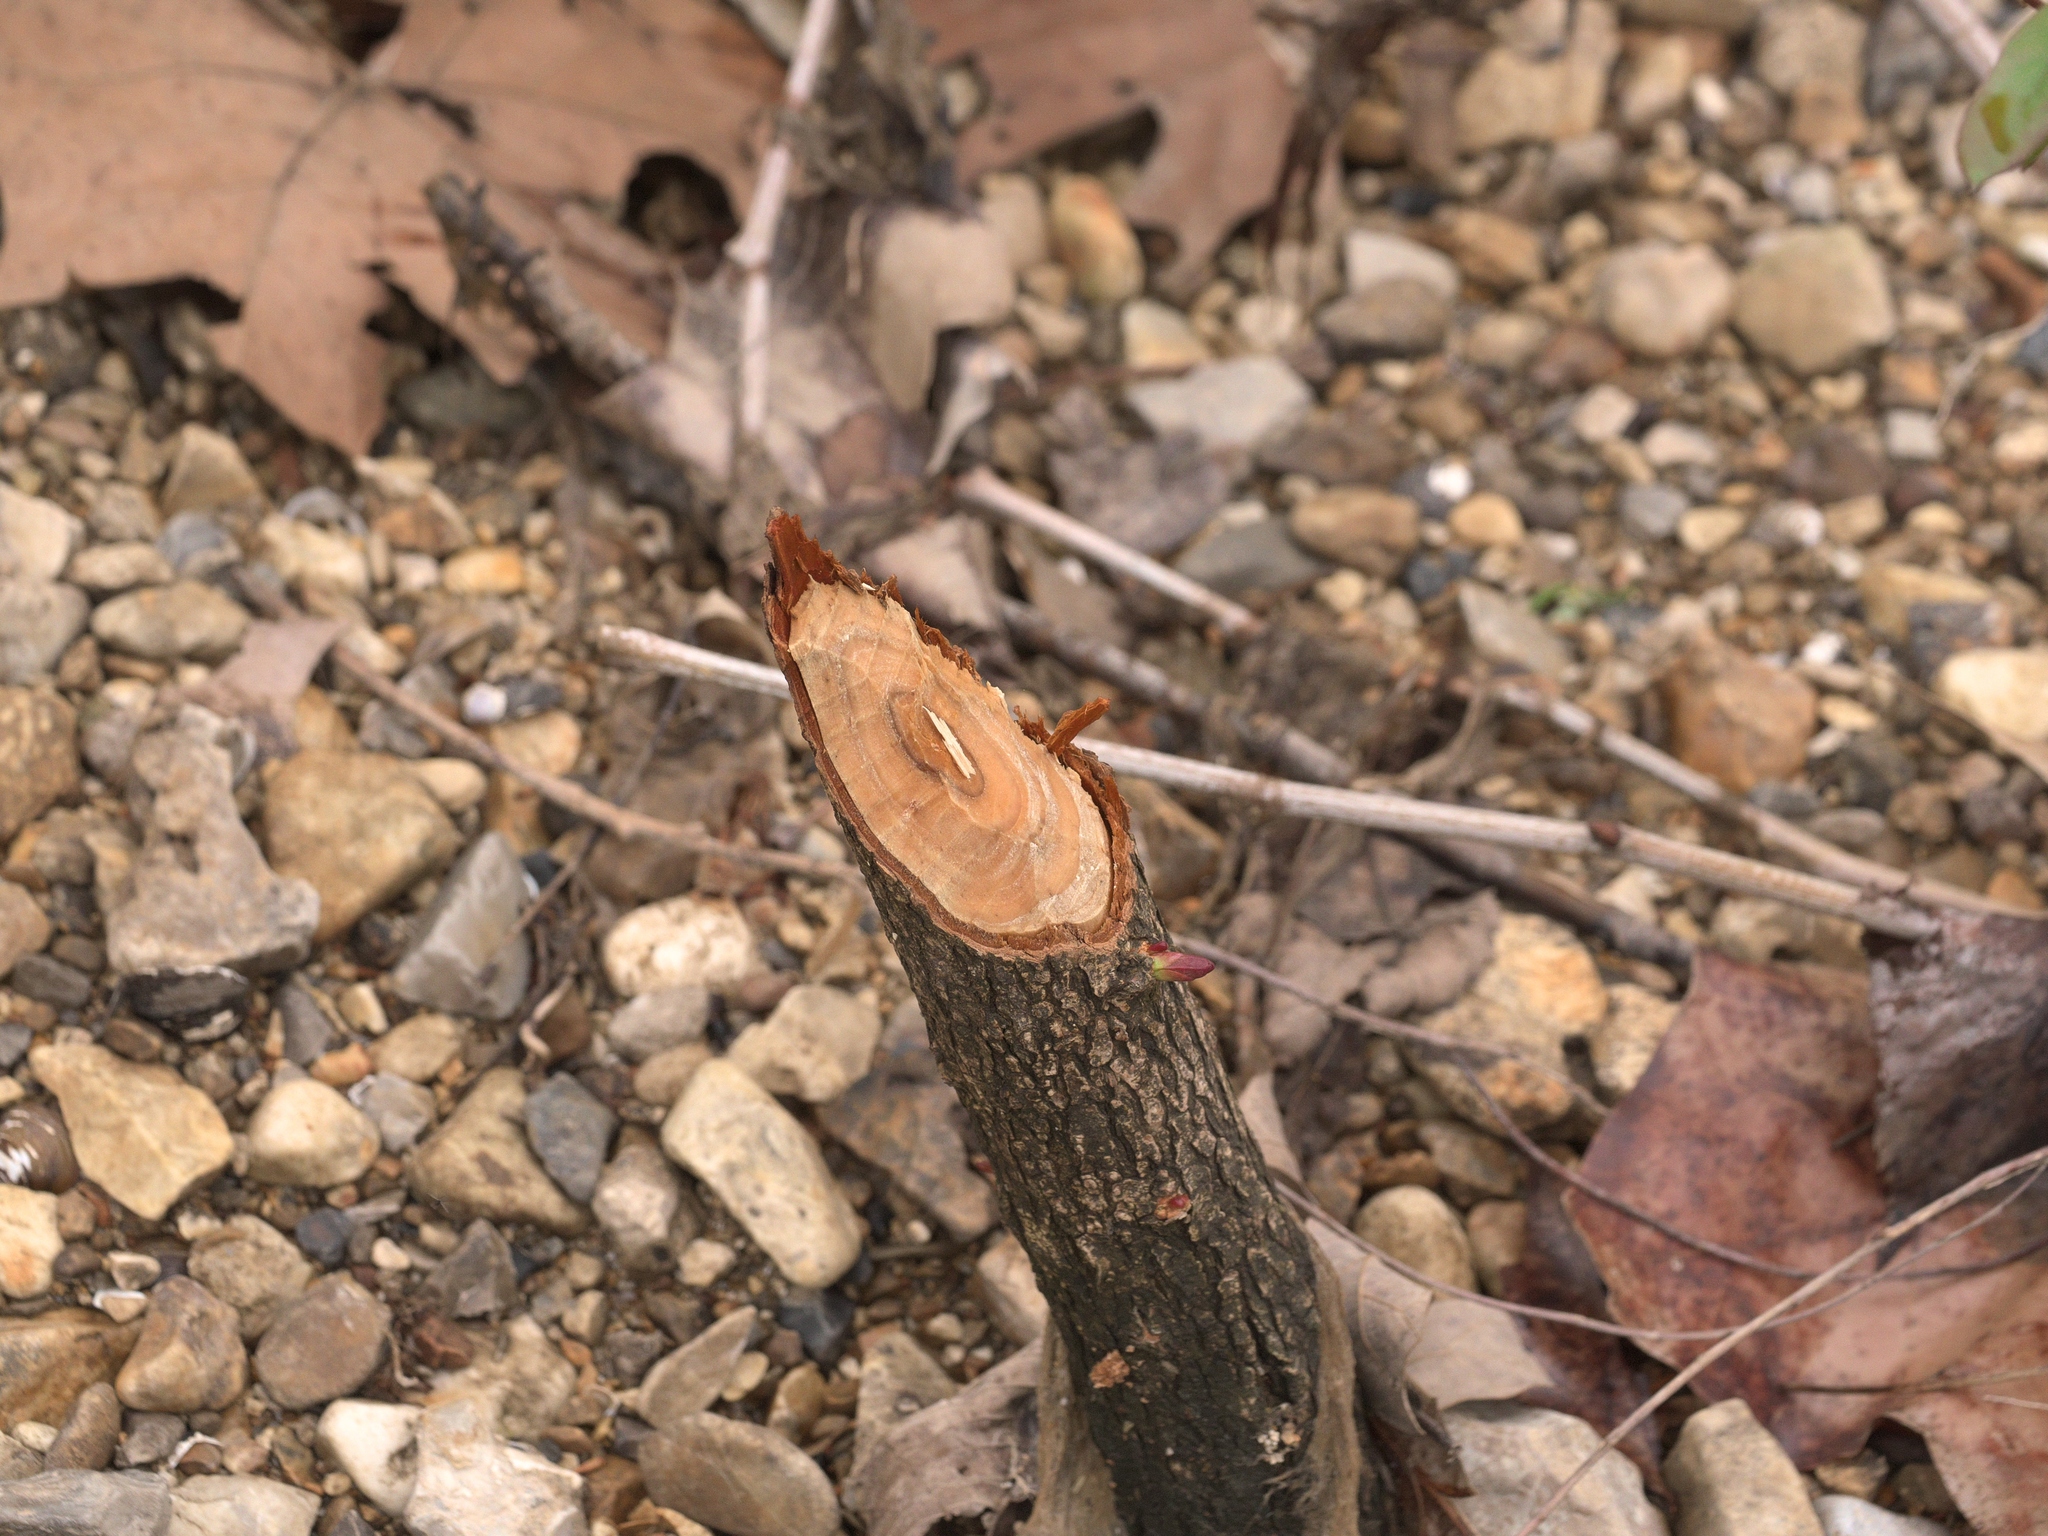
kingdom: Animalia
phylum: Chordata
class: Mammalia
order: Rodentia
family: Castoridae
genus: Castor
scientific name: Castor canadensis
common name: American beaver
